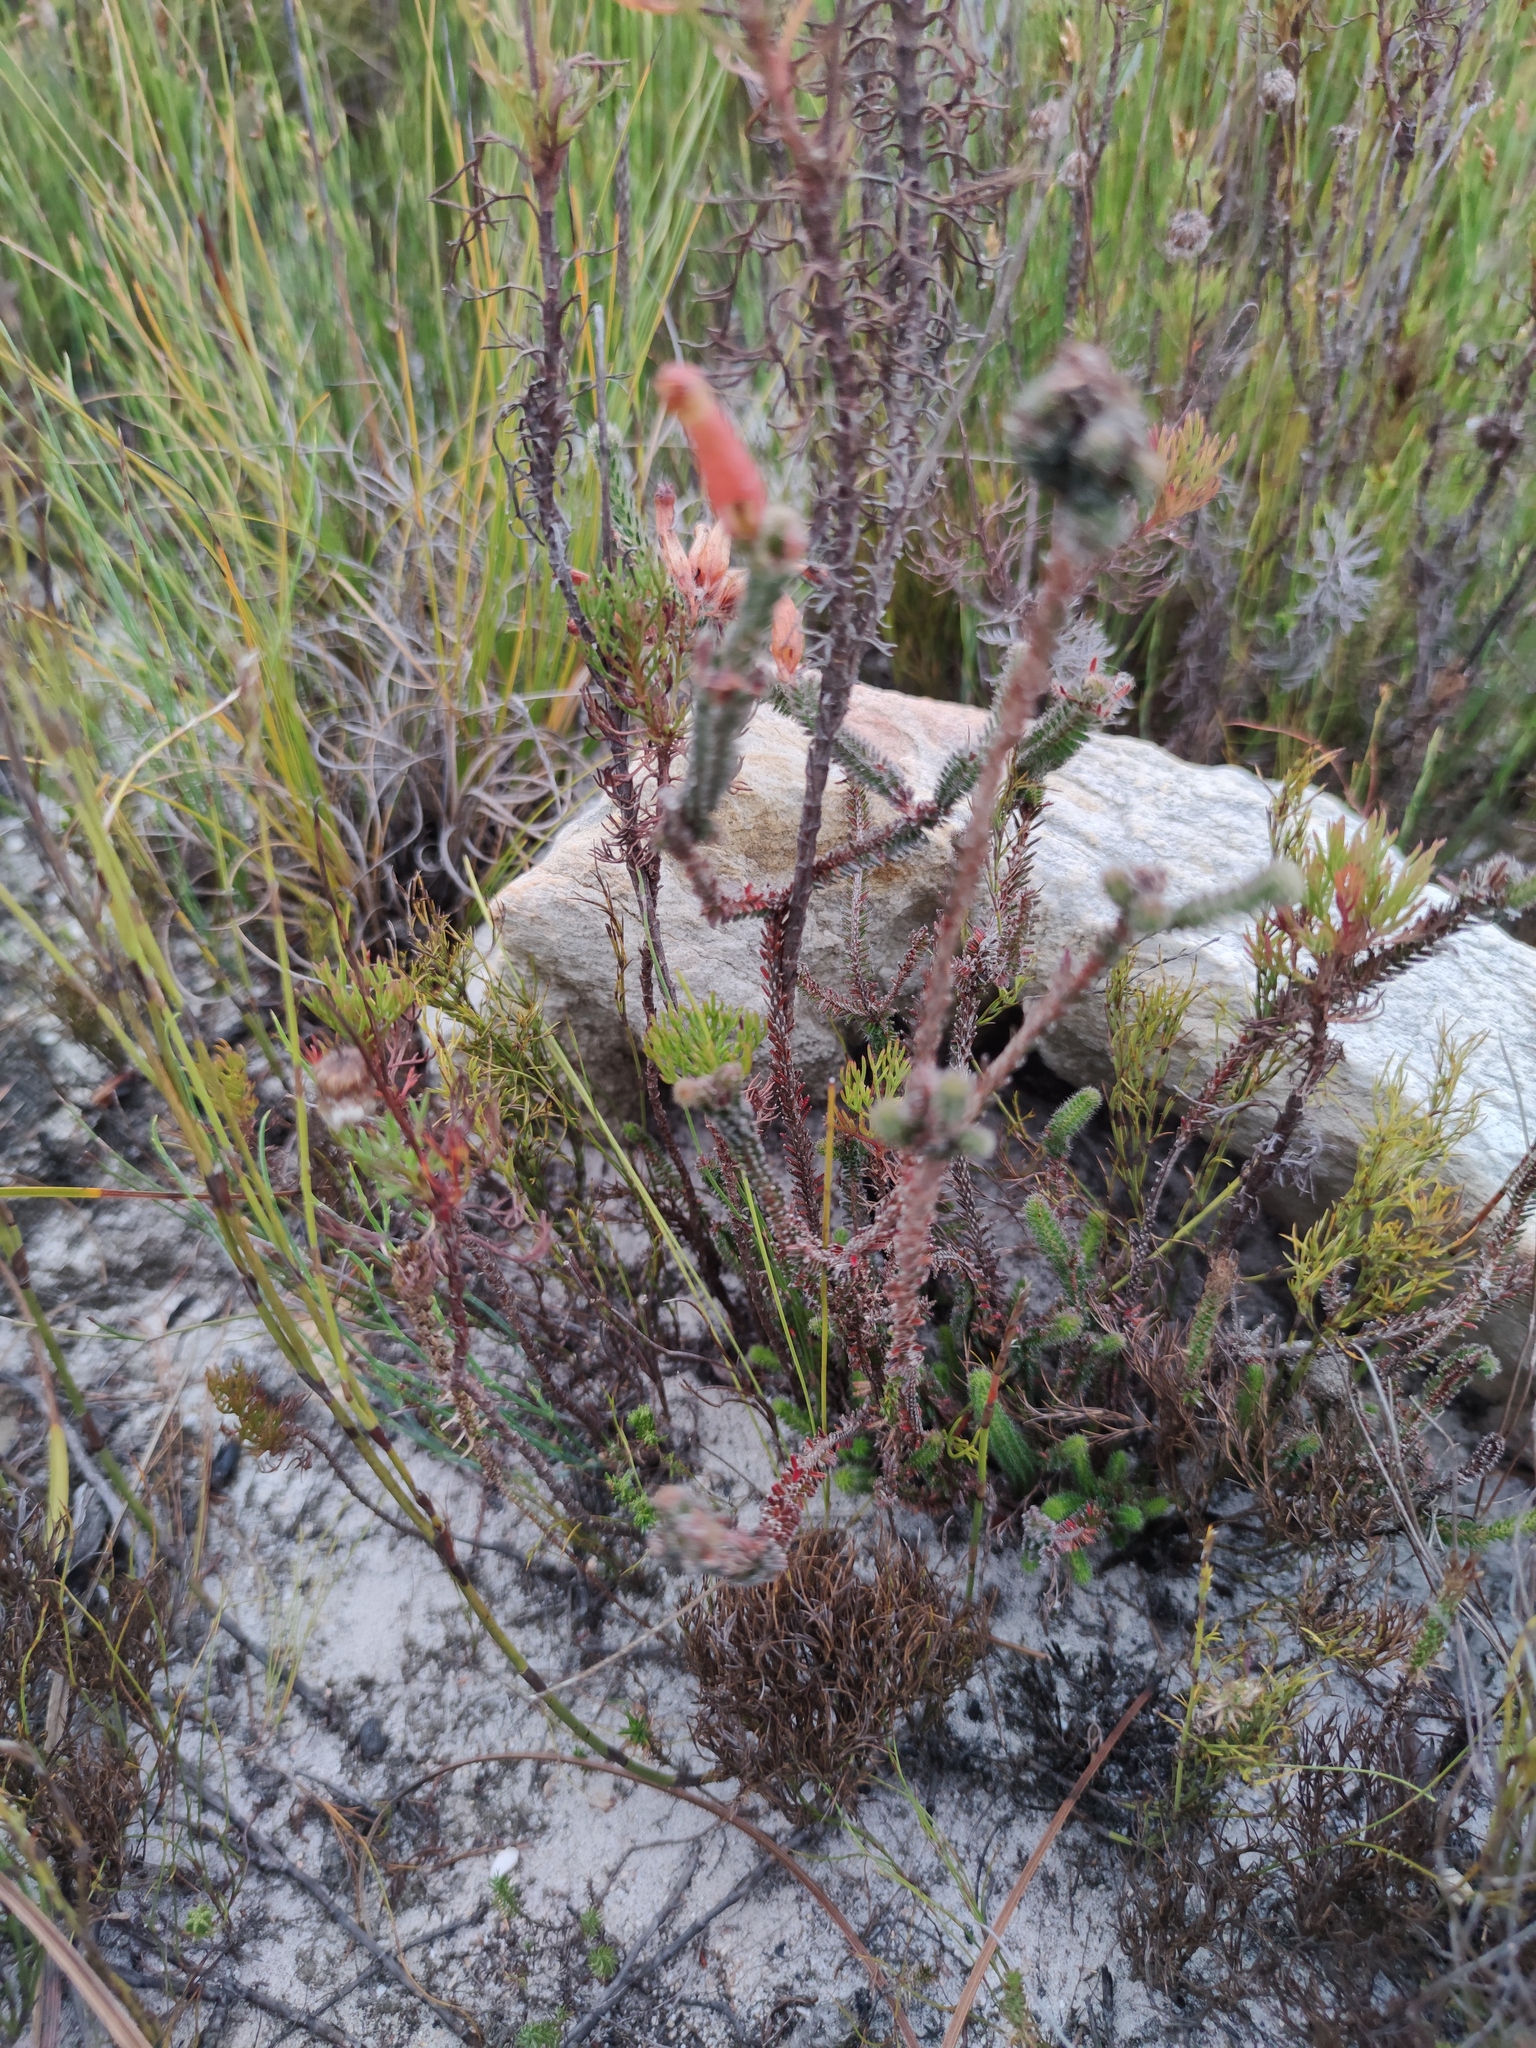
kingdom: Plantae
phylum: Tracheophyta
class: Magnoliopsida
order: Ericales
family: Ericaceae
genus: Erica
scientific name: Erica massonii
